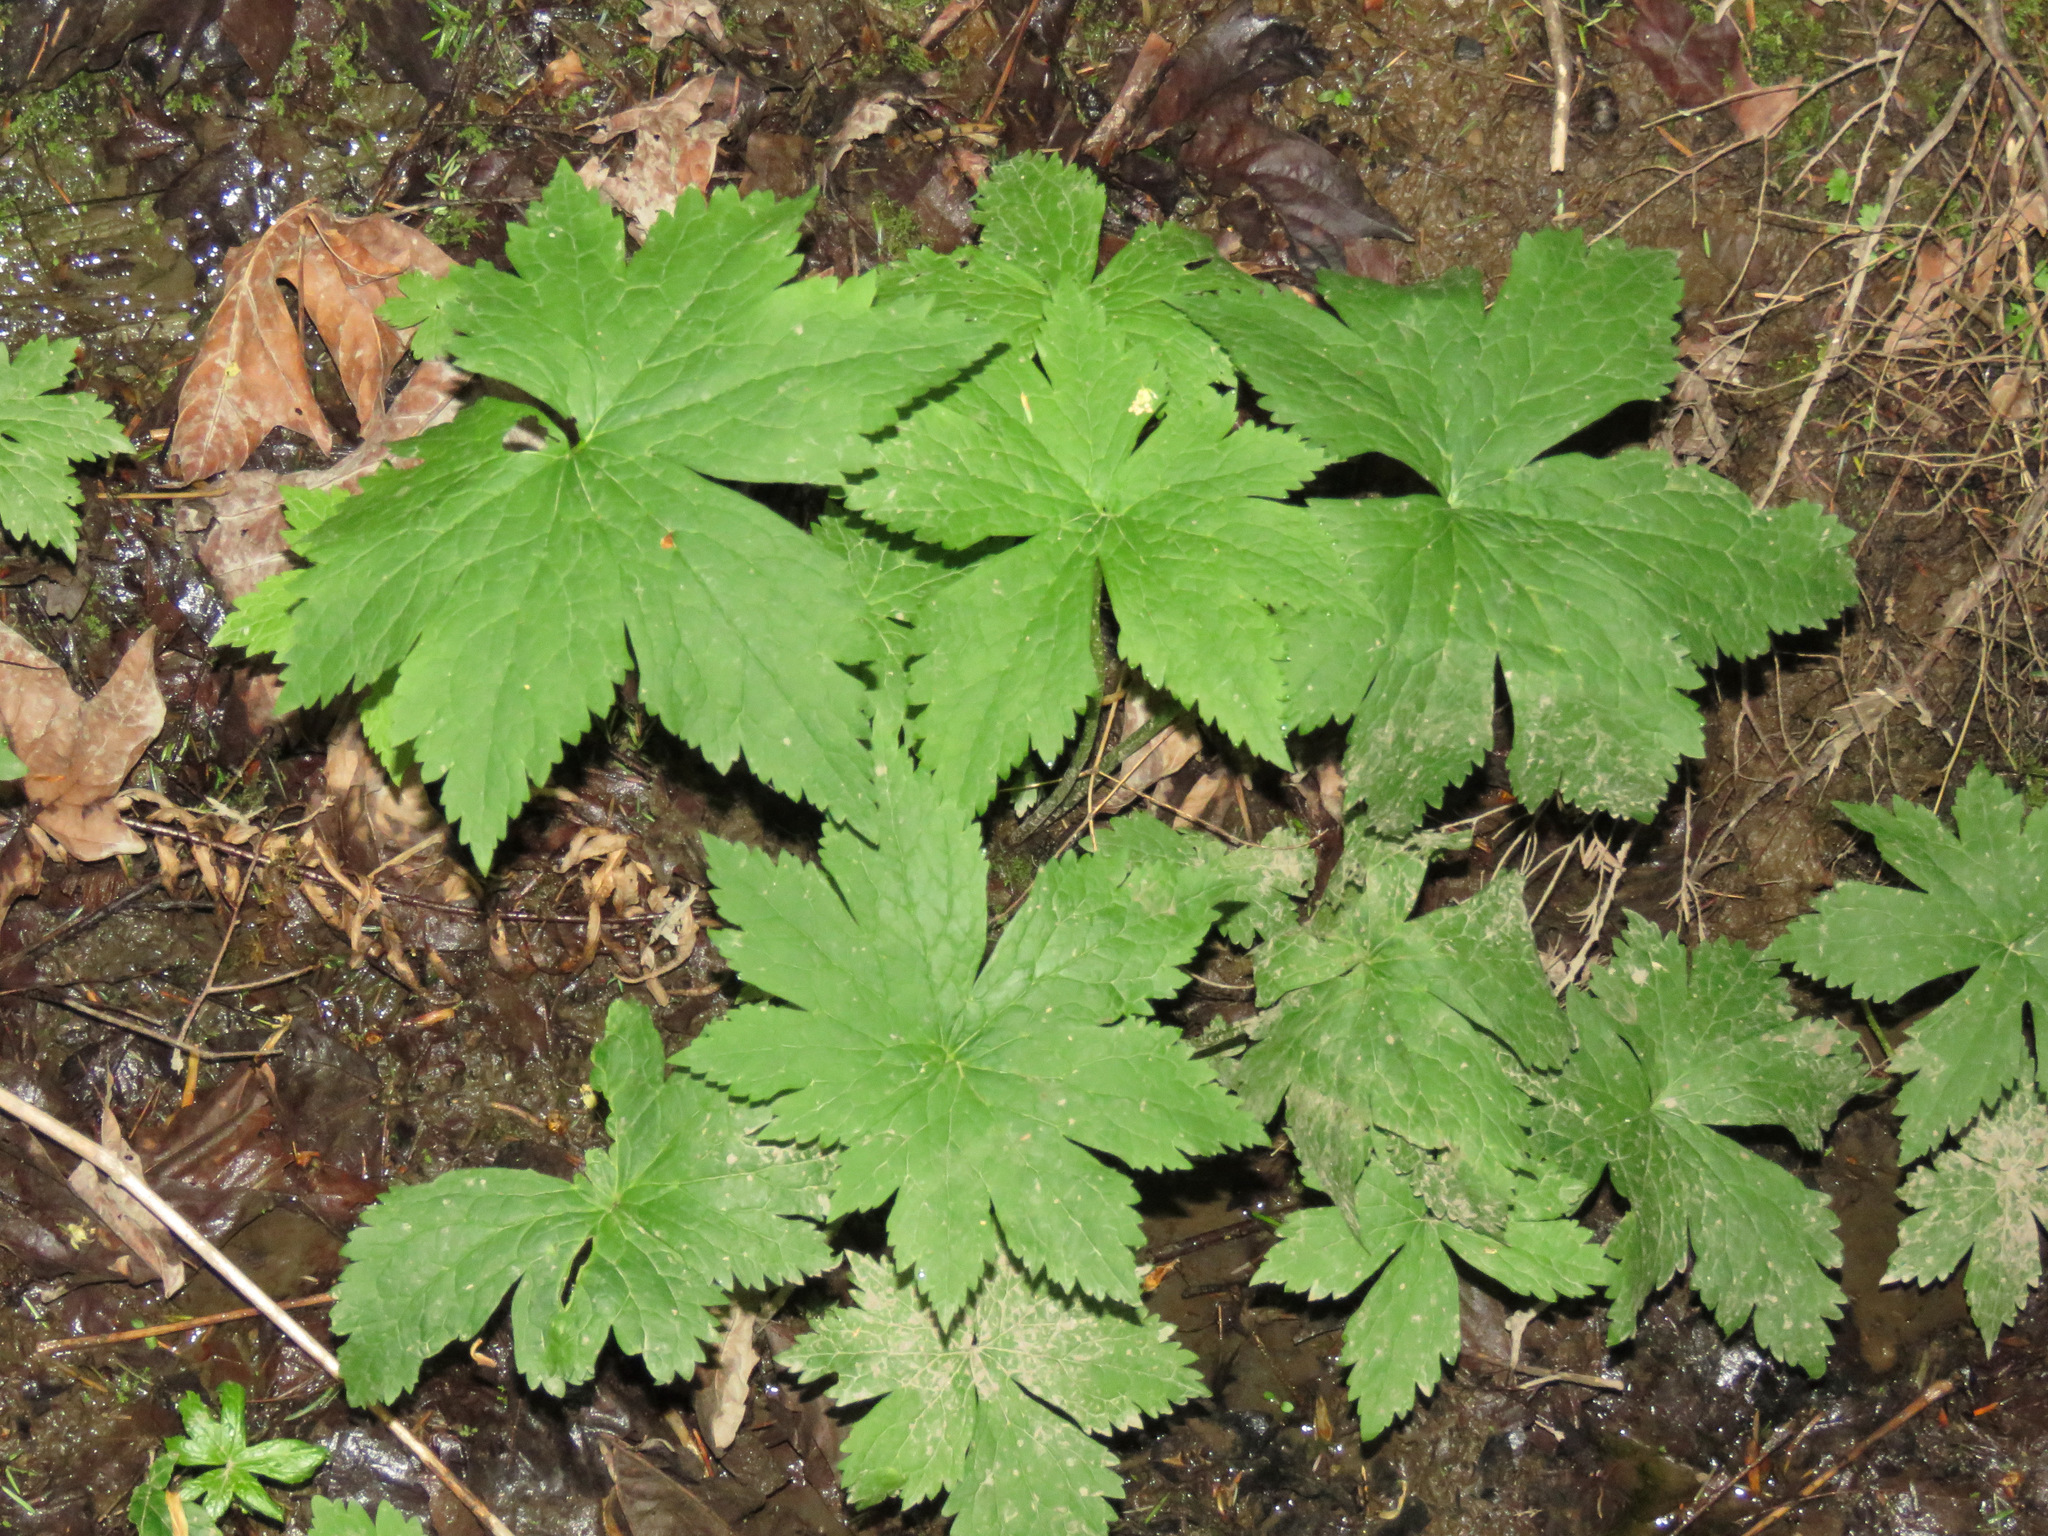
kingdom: Plantae
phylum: Tracheophyta
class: Magnoliopsida
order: Ranunculales
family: Ranunculaceae
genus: Trautvetteria
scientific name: Trautvetteria carolinensis
